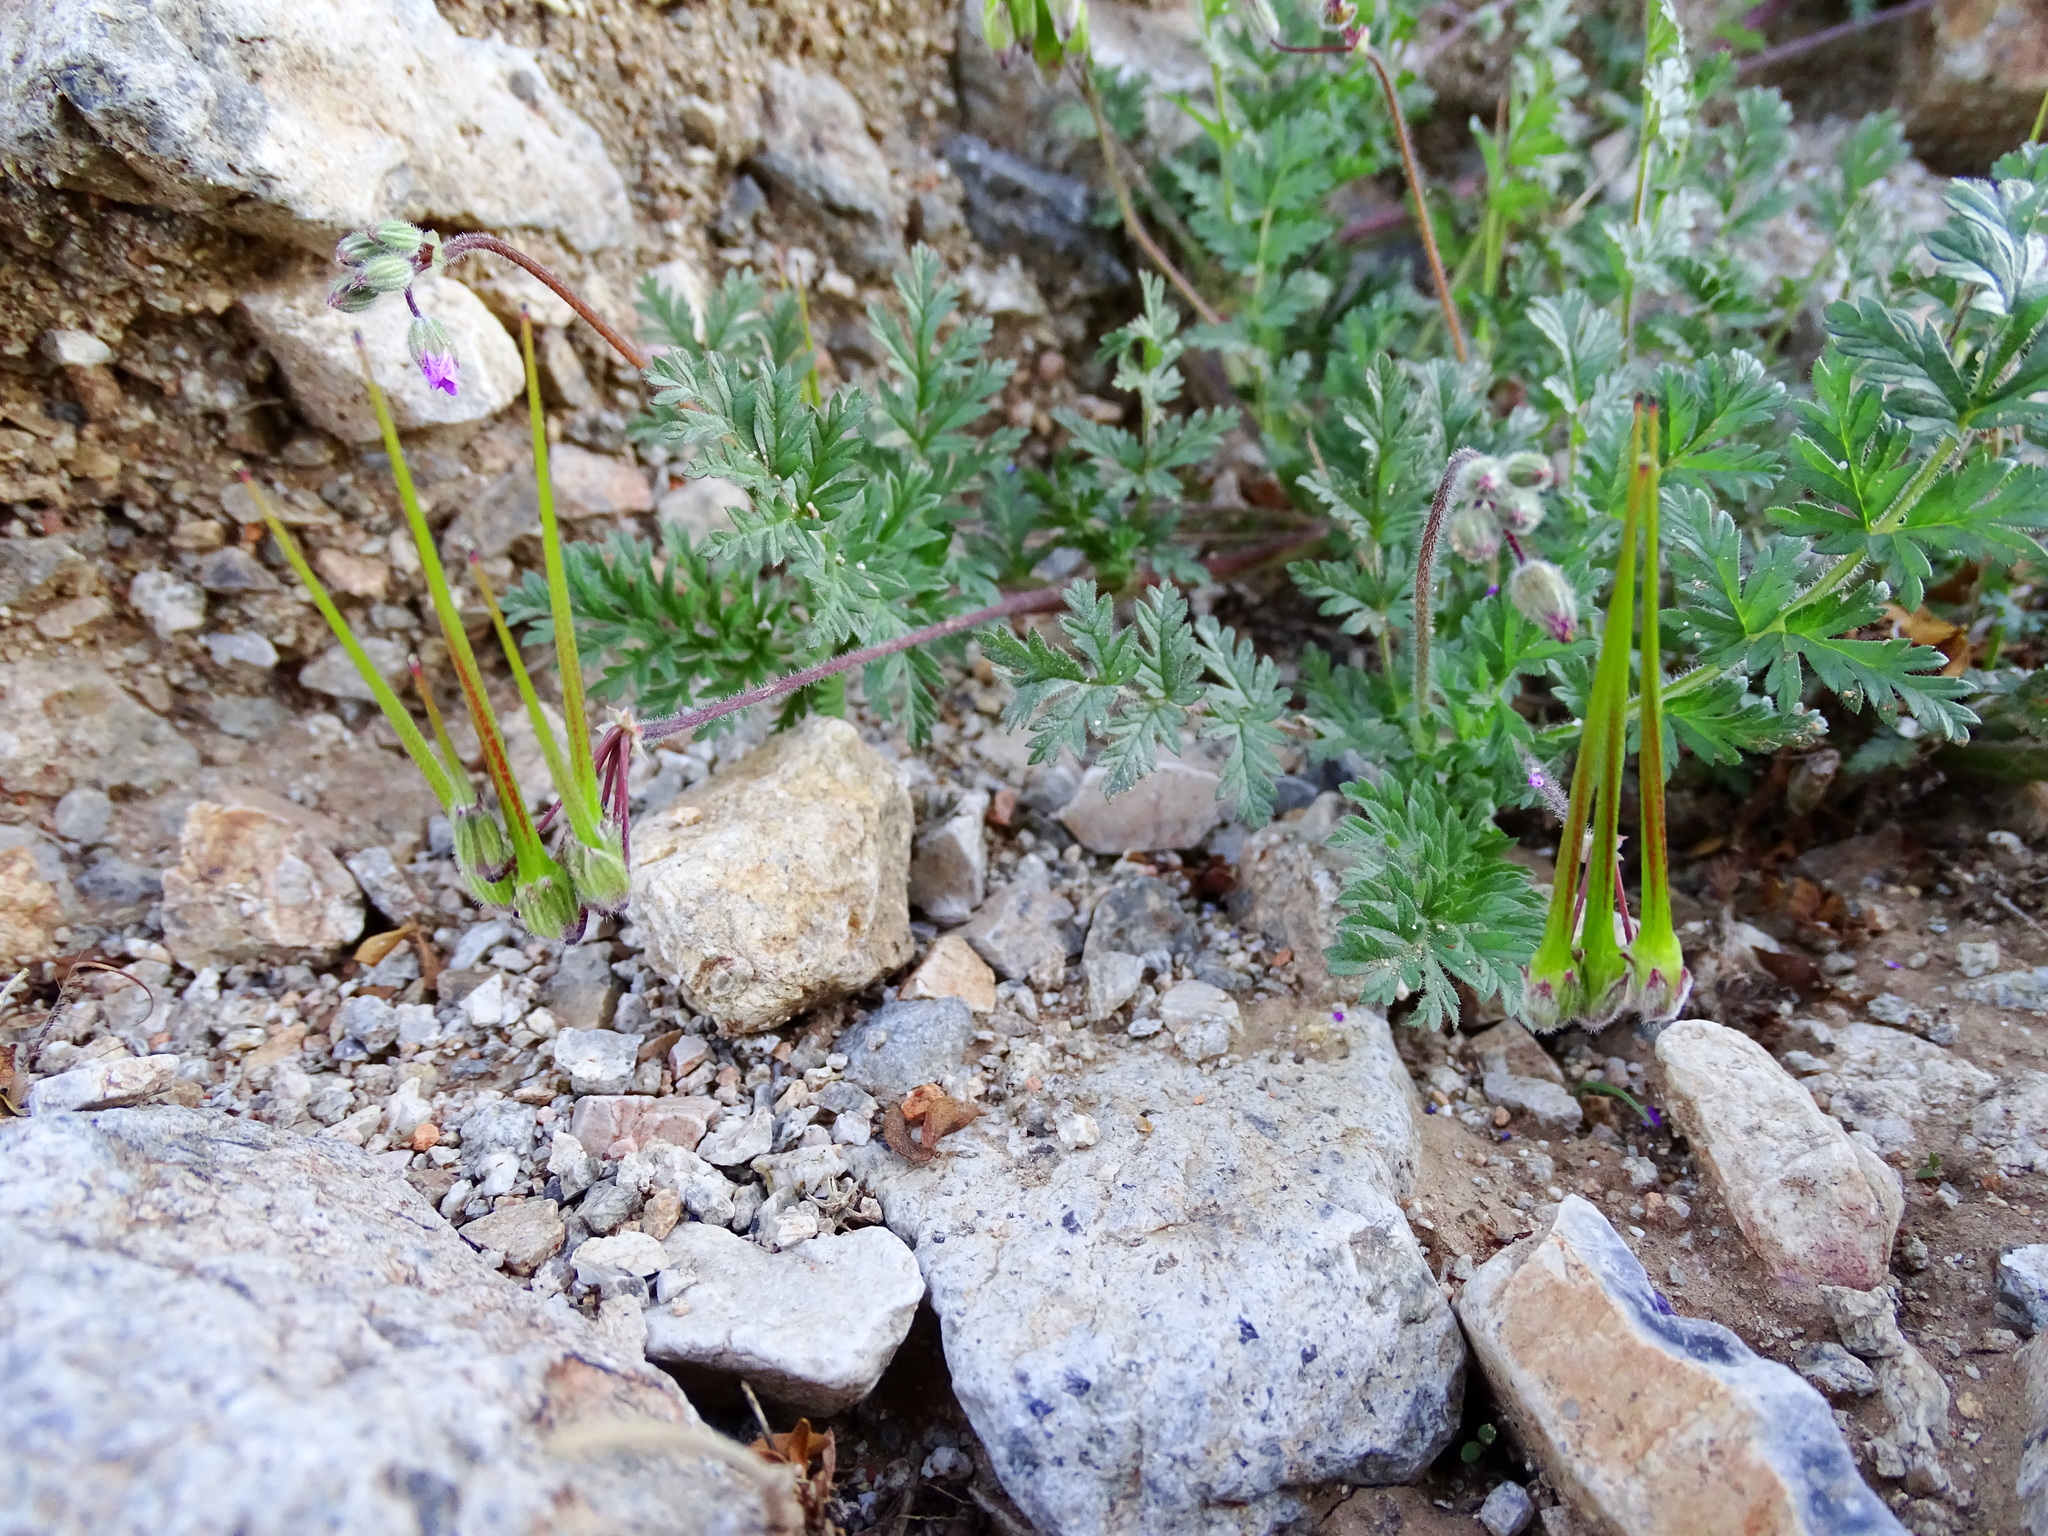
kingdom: Plantae
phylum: Tracheophyta
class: Magnoliopsida
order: Geraniales
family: Geraniaceae
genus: Erodium
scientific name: Erodium cicutarium
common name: Common stork's-bill
